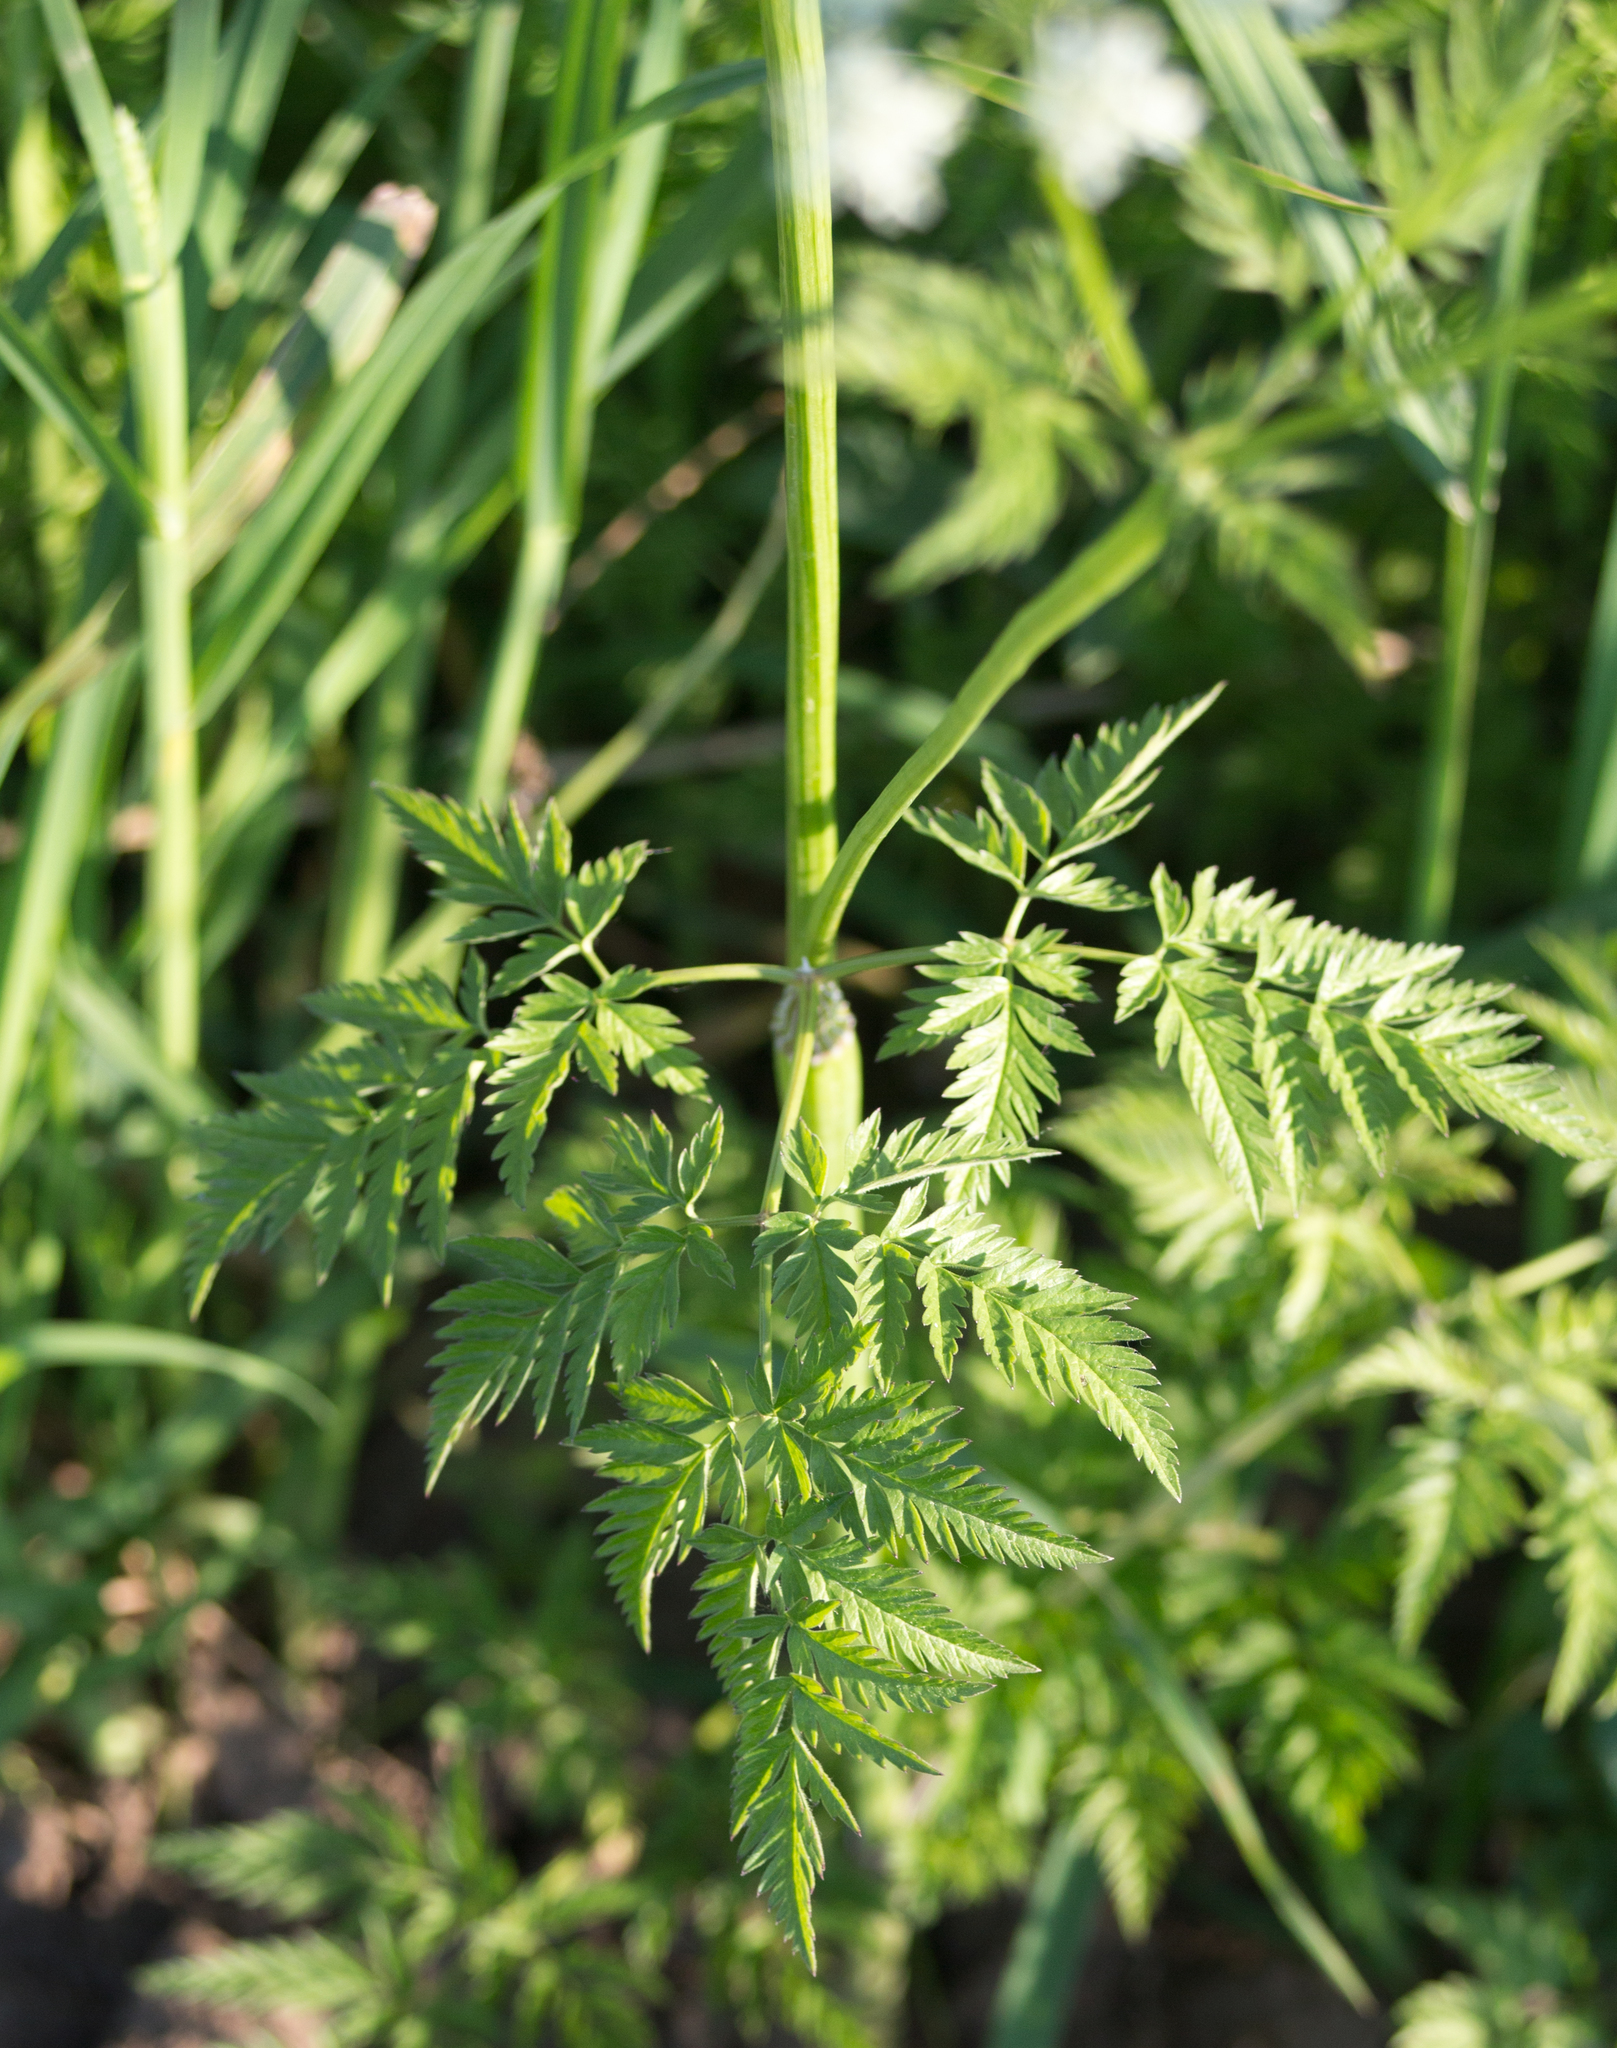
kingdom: Plantae
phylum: Tracheophyta
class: Magnoliopsida
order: Apiales
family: Apiaceae
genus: Anthriscus
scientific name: Anthriscus sylvestris
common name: Cow parsley
